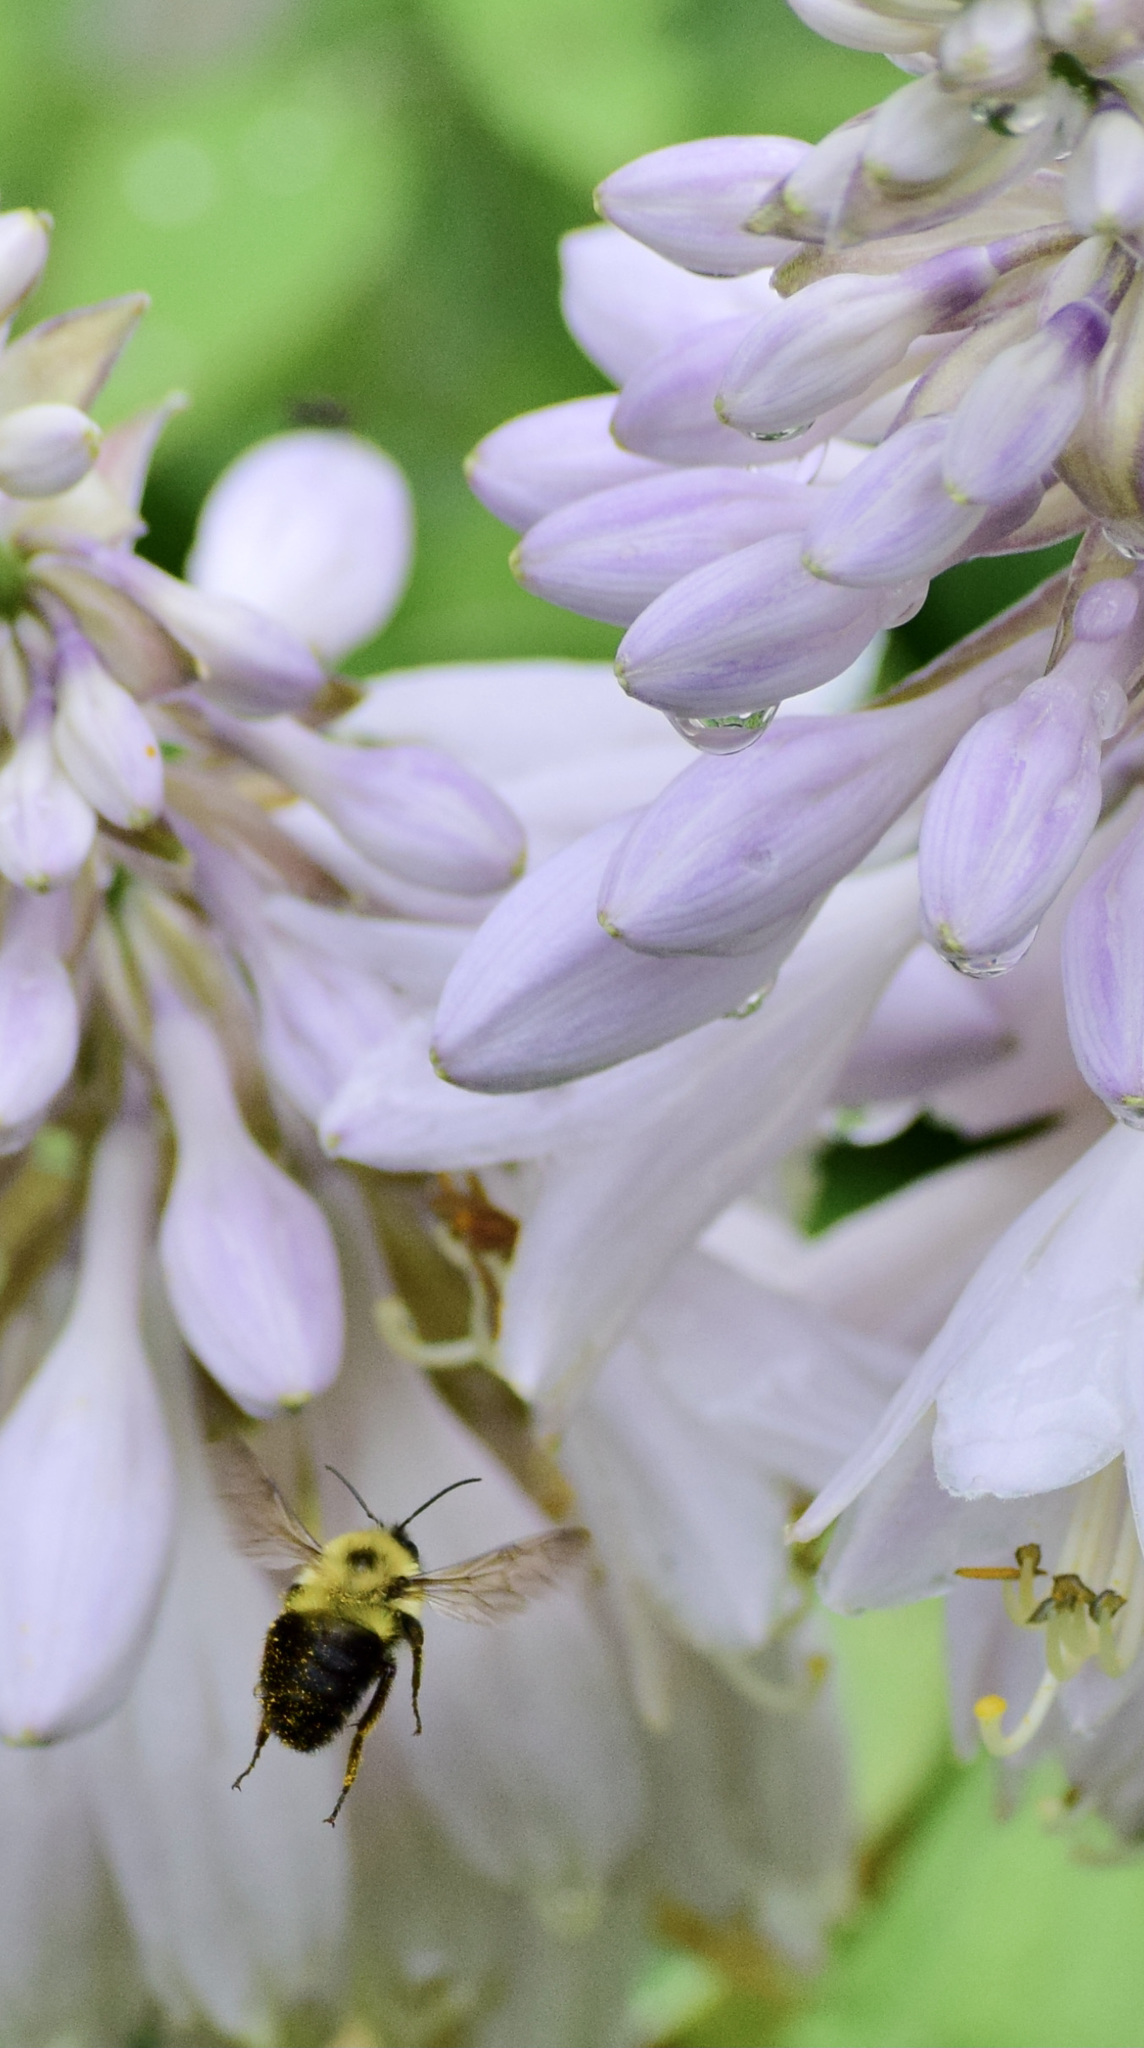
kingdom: Animalia
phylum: Arthropoda
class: Insecta
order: Hymenoptera
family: Apidae
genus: Bombus
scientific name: Bombus bimaculatus
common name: Two-spotted bumble bee
